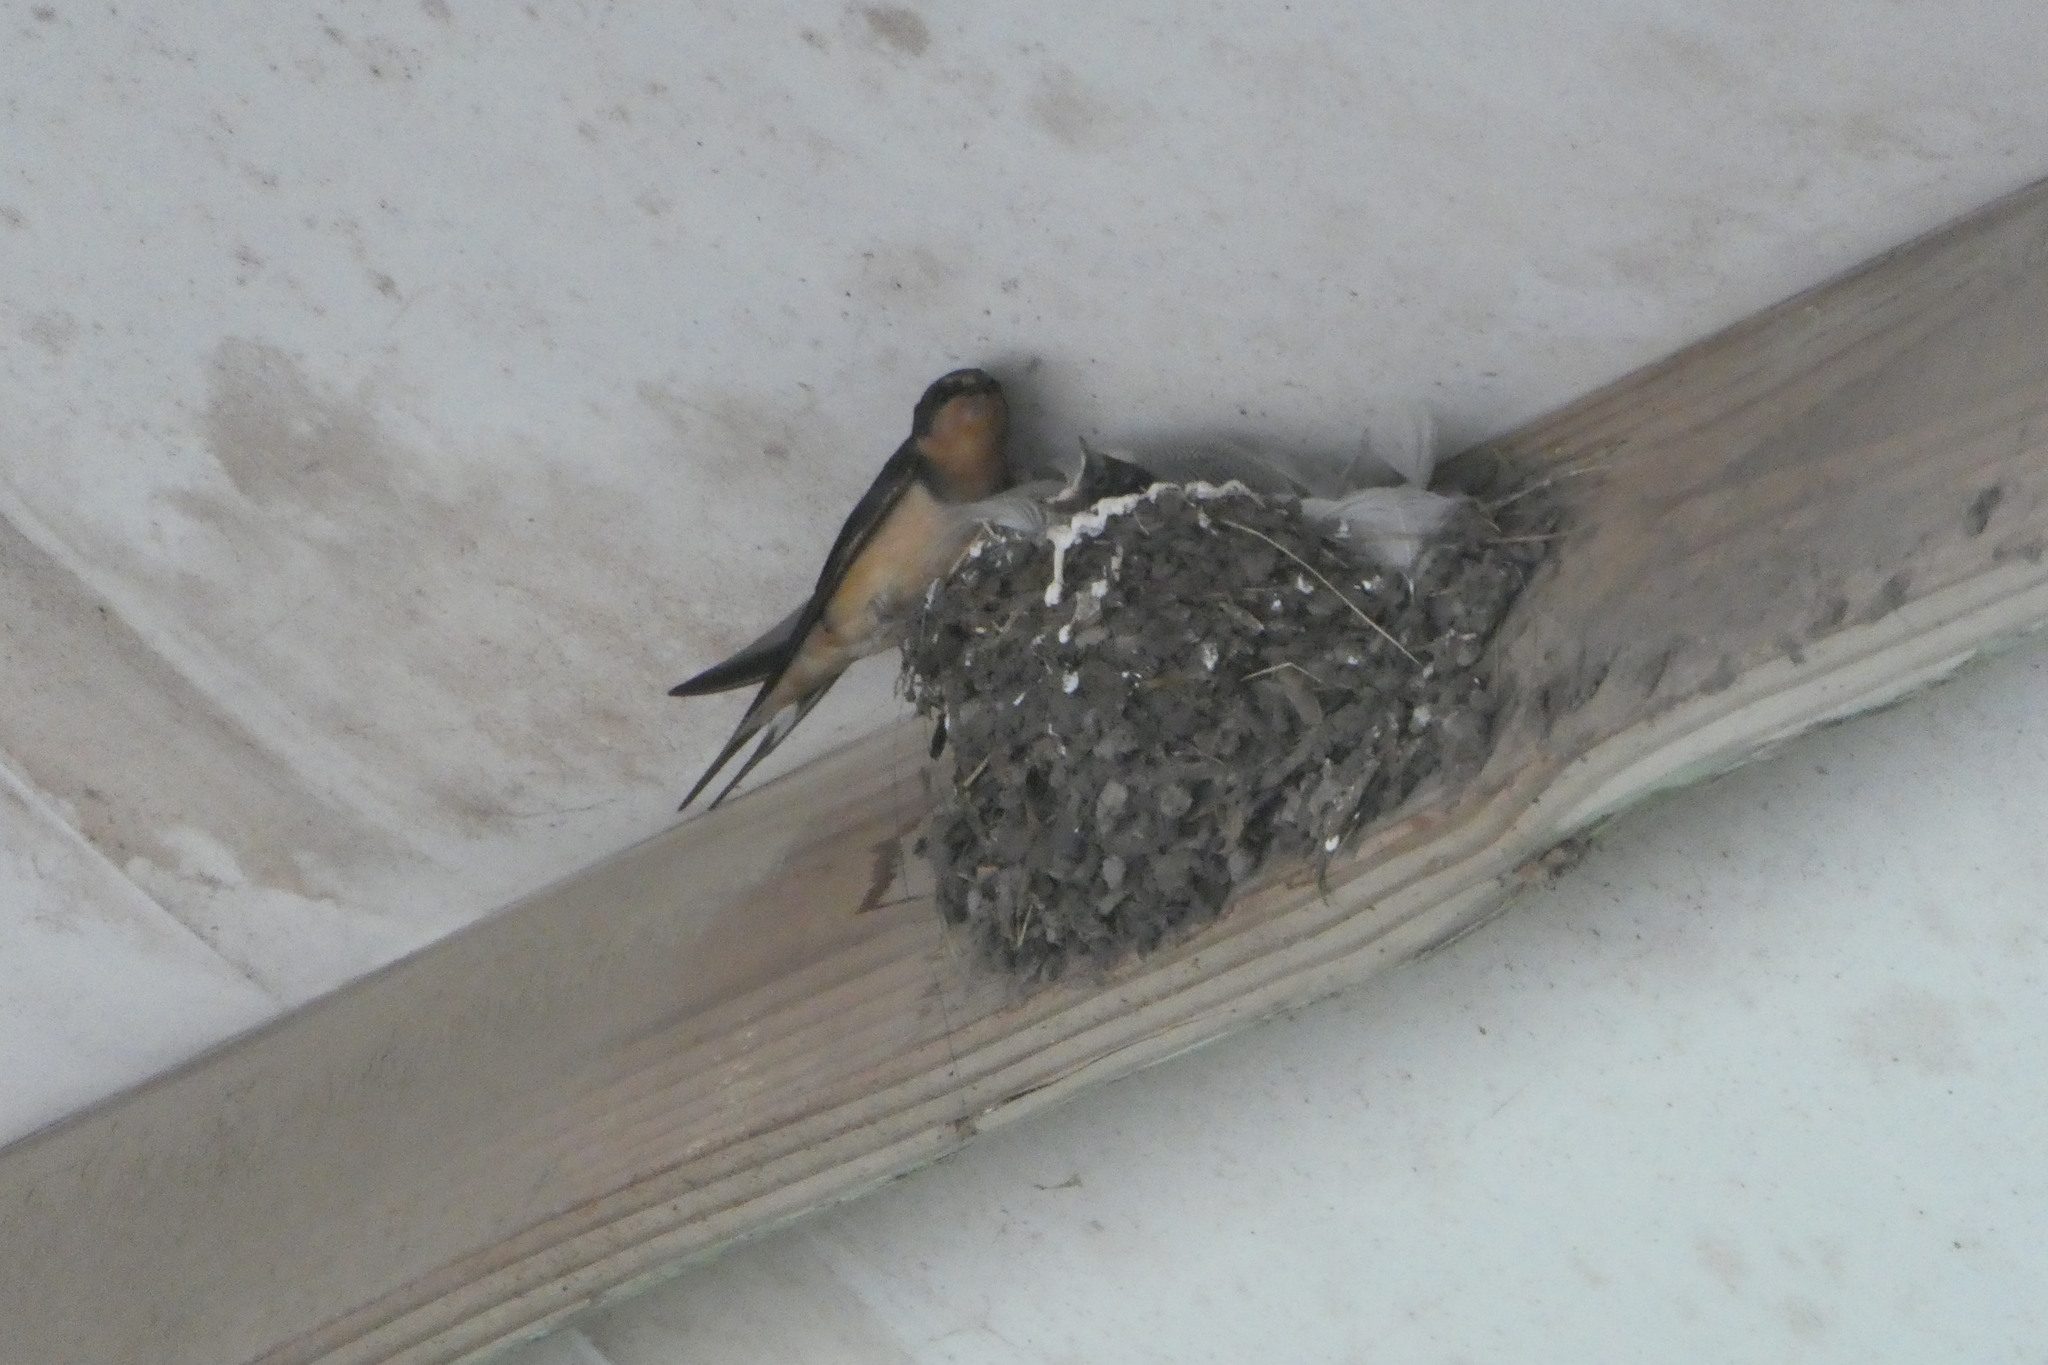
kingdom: Animalia
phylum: Chordata
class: Aves
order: Passeriformes
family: Hirundinidae
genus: Hirundo
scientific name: Hirundo rustica
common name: Barn swallow
